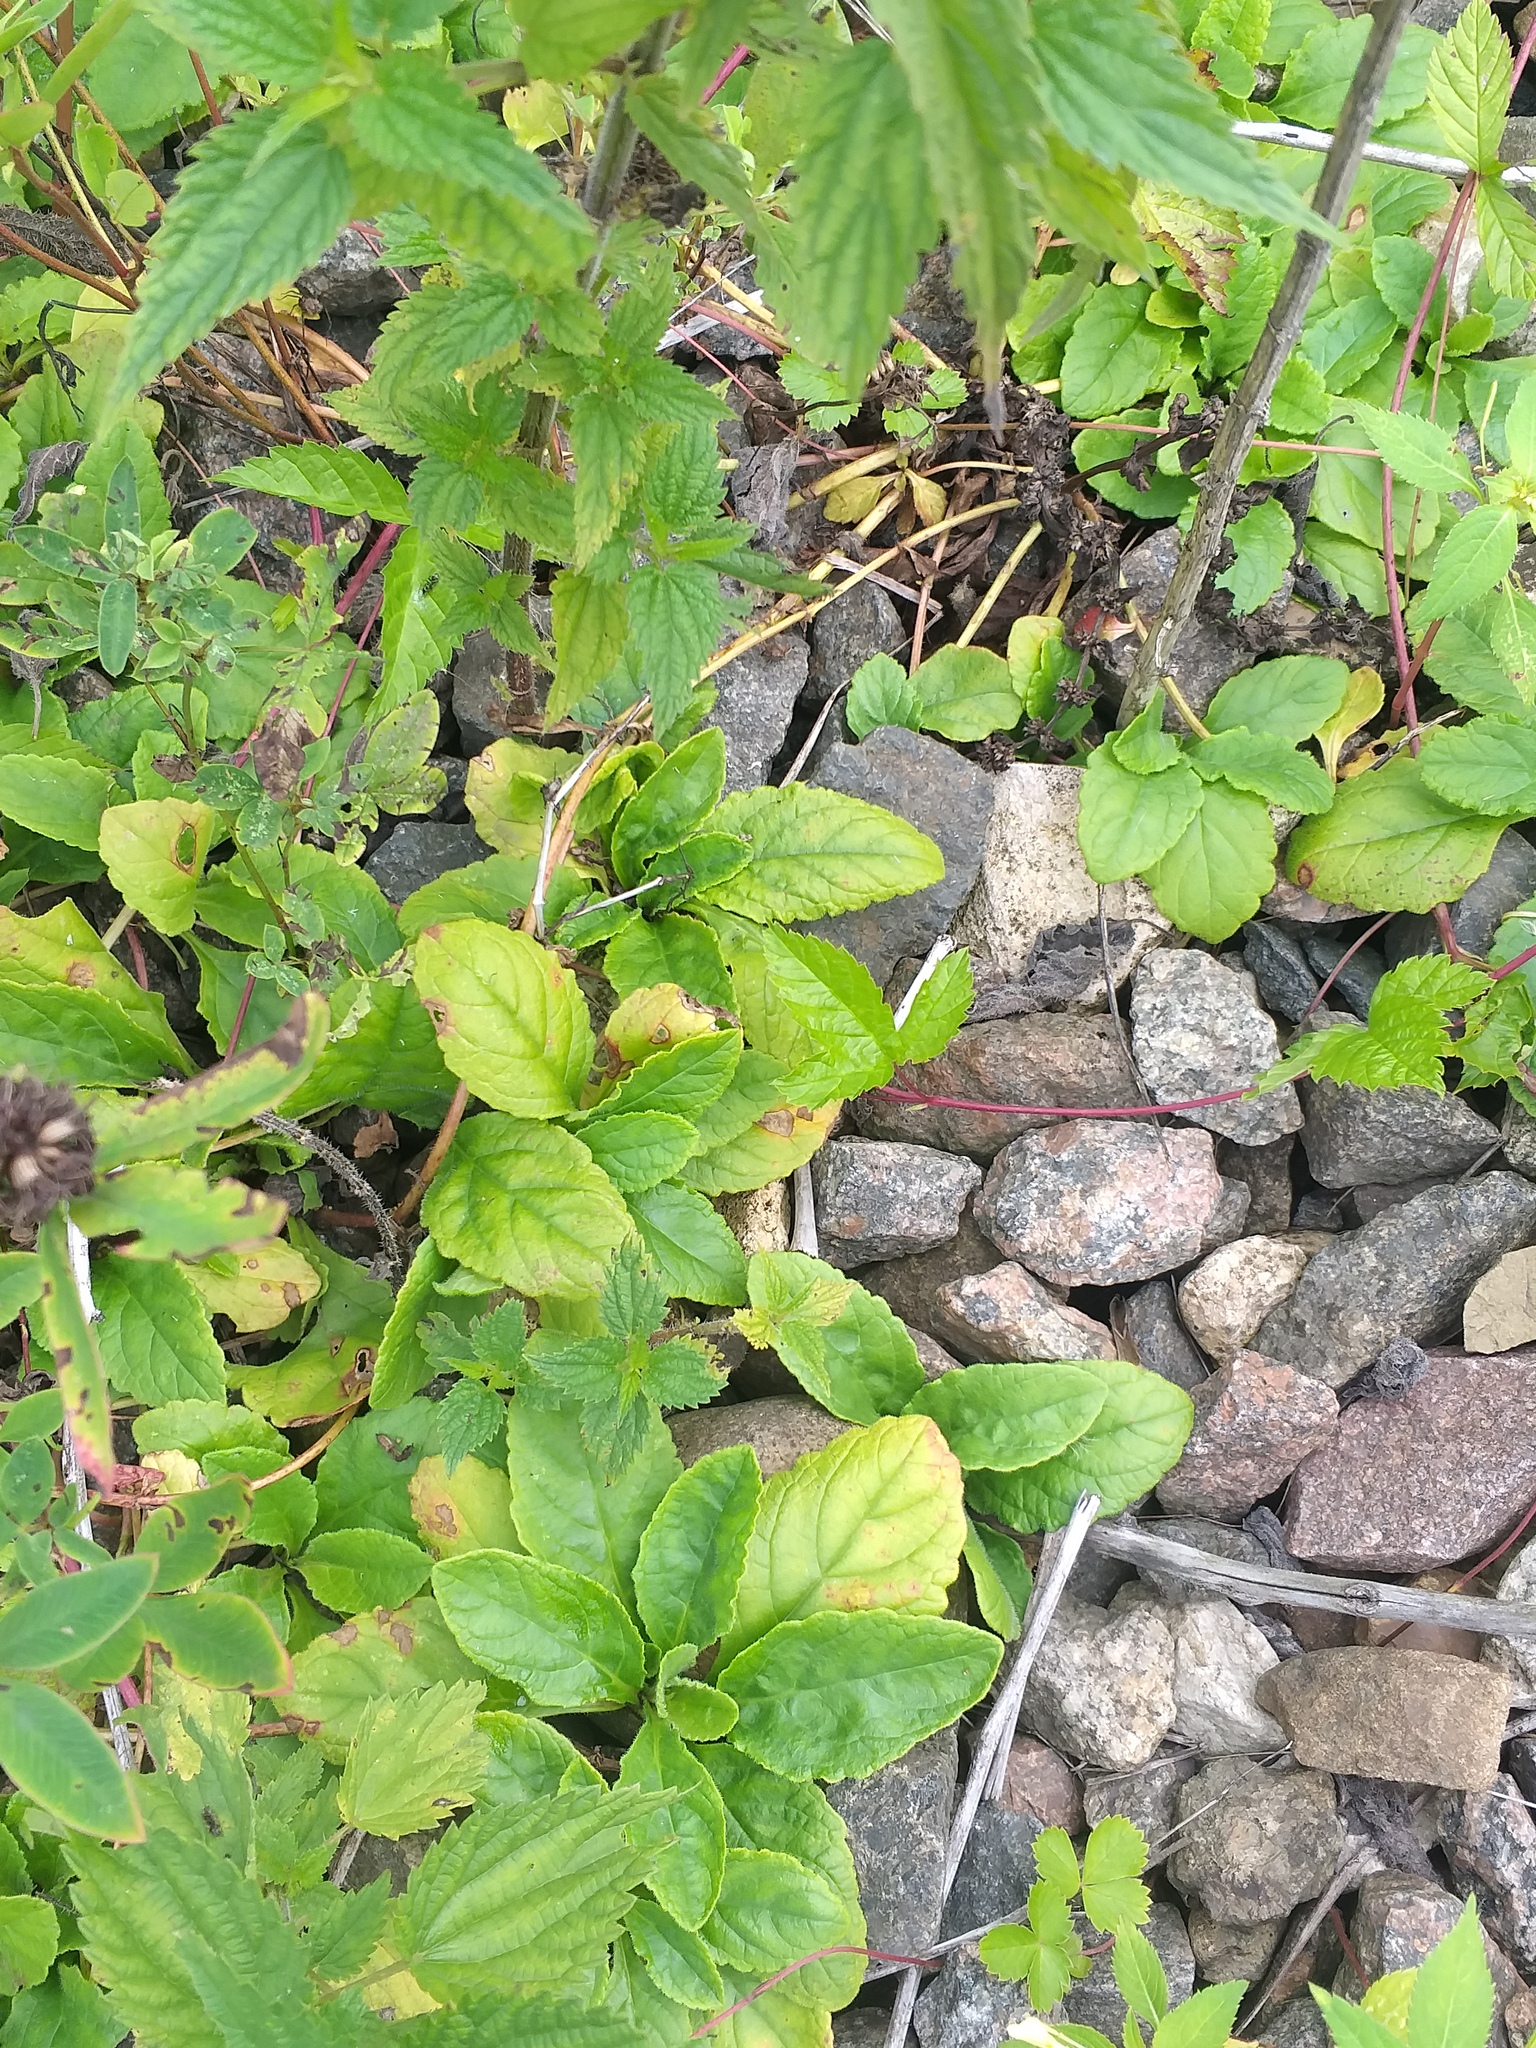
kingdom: Plantae
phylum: Tracheophyta
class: Magnoliopsida
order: Lamiales
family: Lamiaceae
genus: Ajuga
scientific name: Ajuga reptans
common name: Bugle
